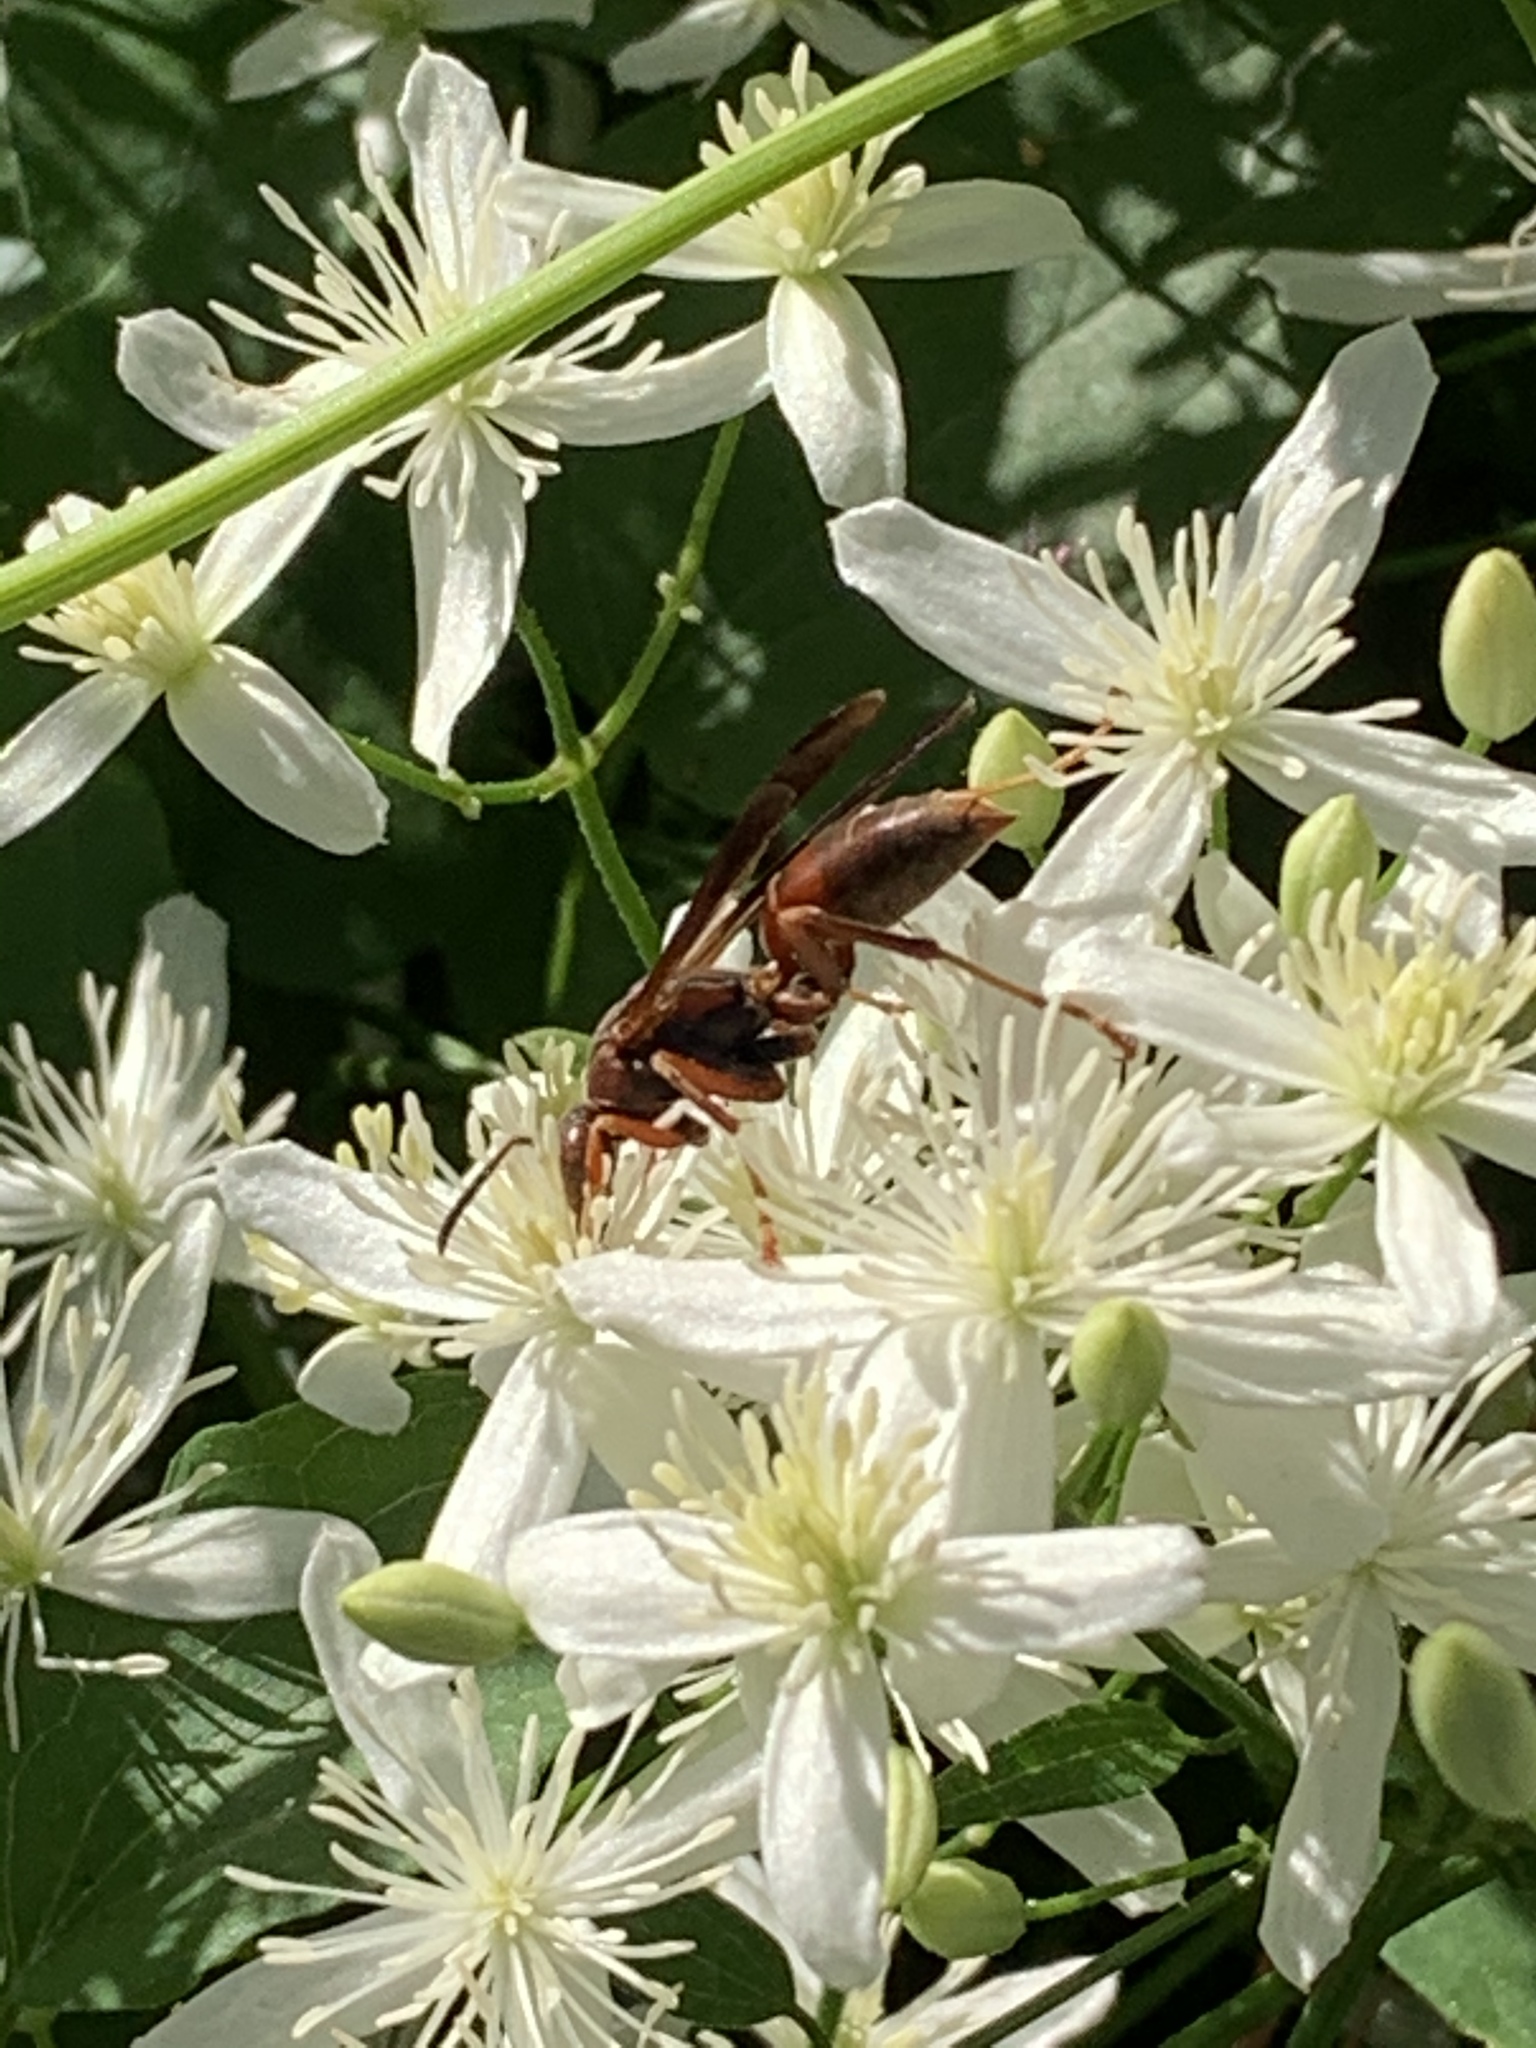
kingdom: Animalia
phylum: Arthropoda
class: Insecta
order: Hymenoptera
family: Eumenidae
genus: Polistes
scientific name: Polistes fuscatus
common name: Dark paper wasp
